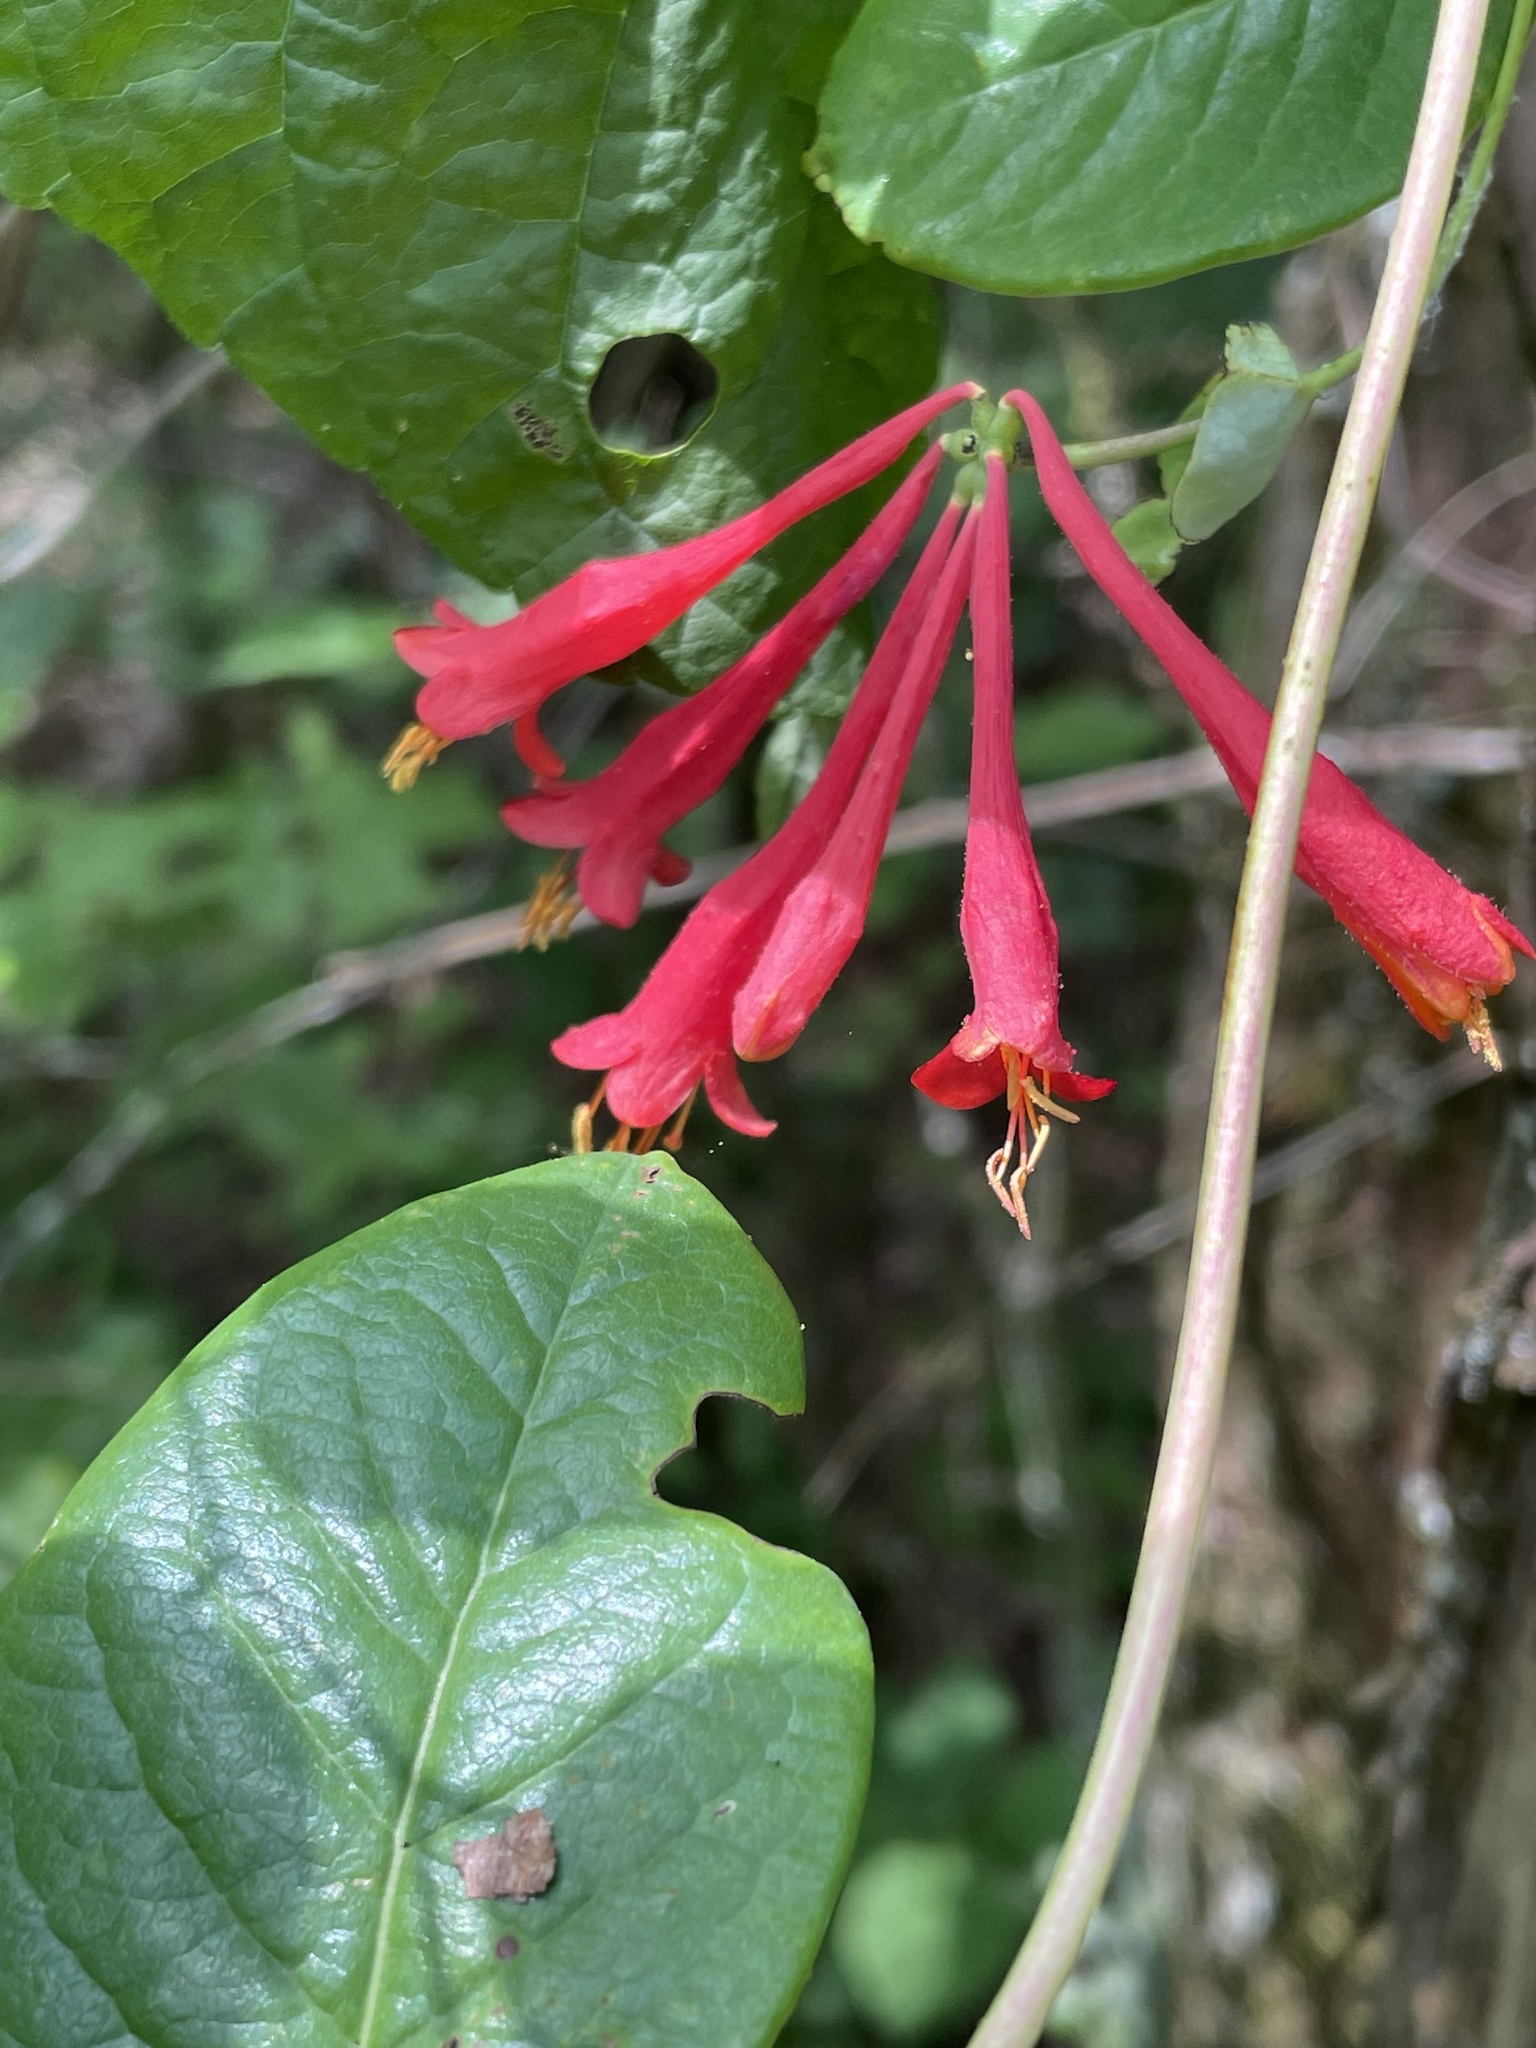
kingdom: Plantae
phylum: Tracheophyta
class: Magnoliopsida
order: Dipsacales
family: Caprifoliaceae
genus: Lonicera
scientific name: Lonicera sempervirens
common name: Coral honeysuckle
